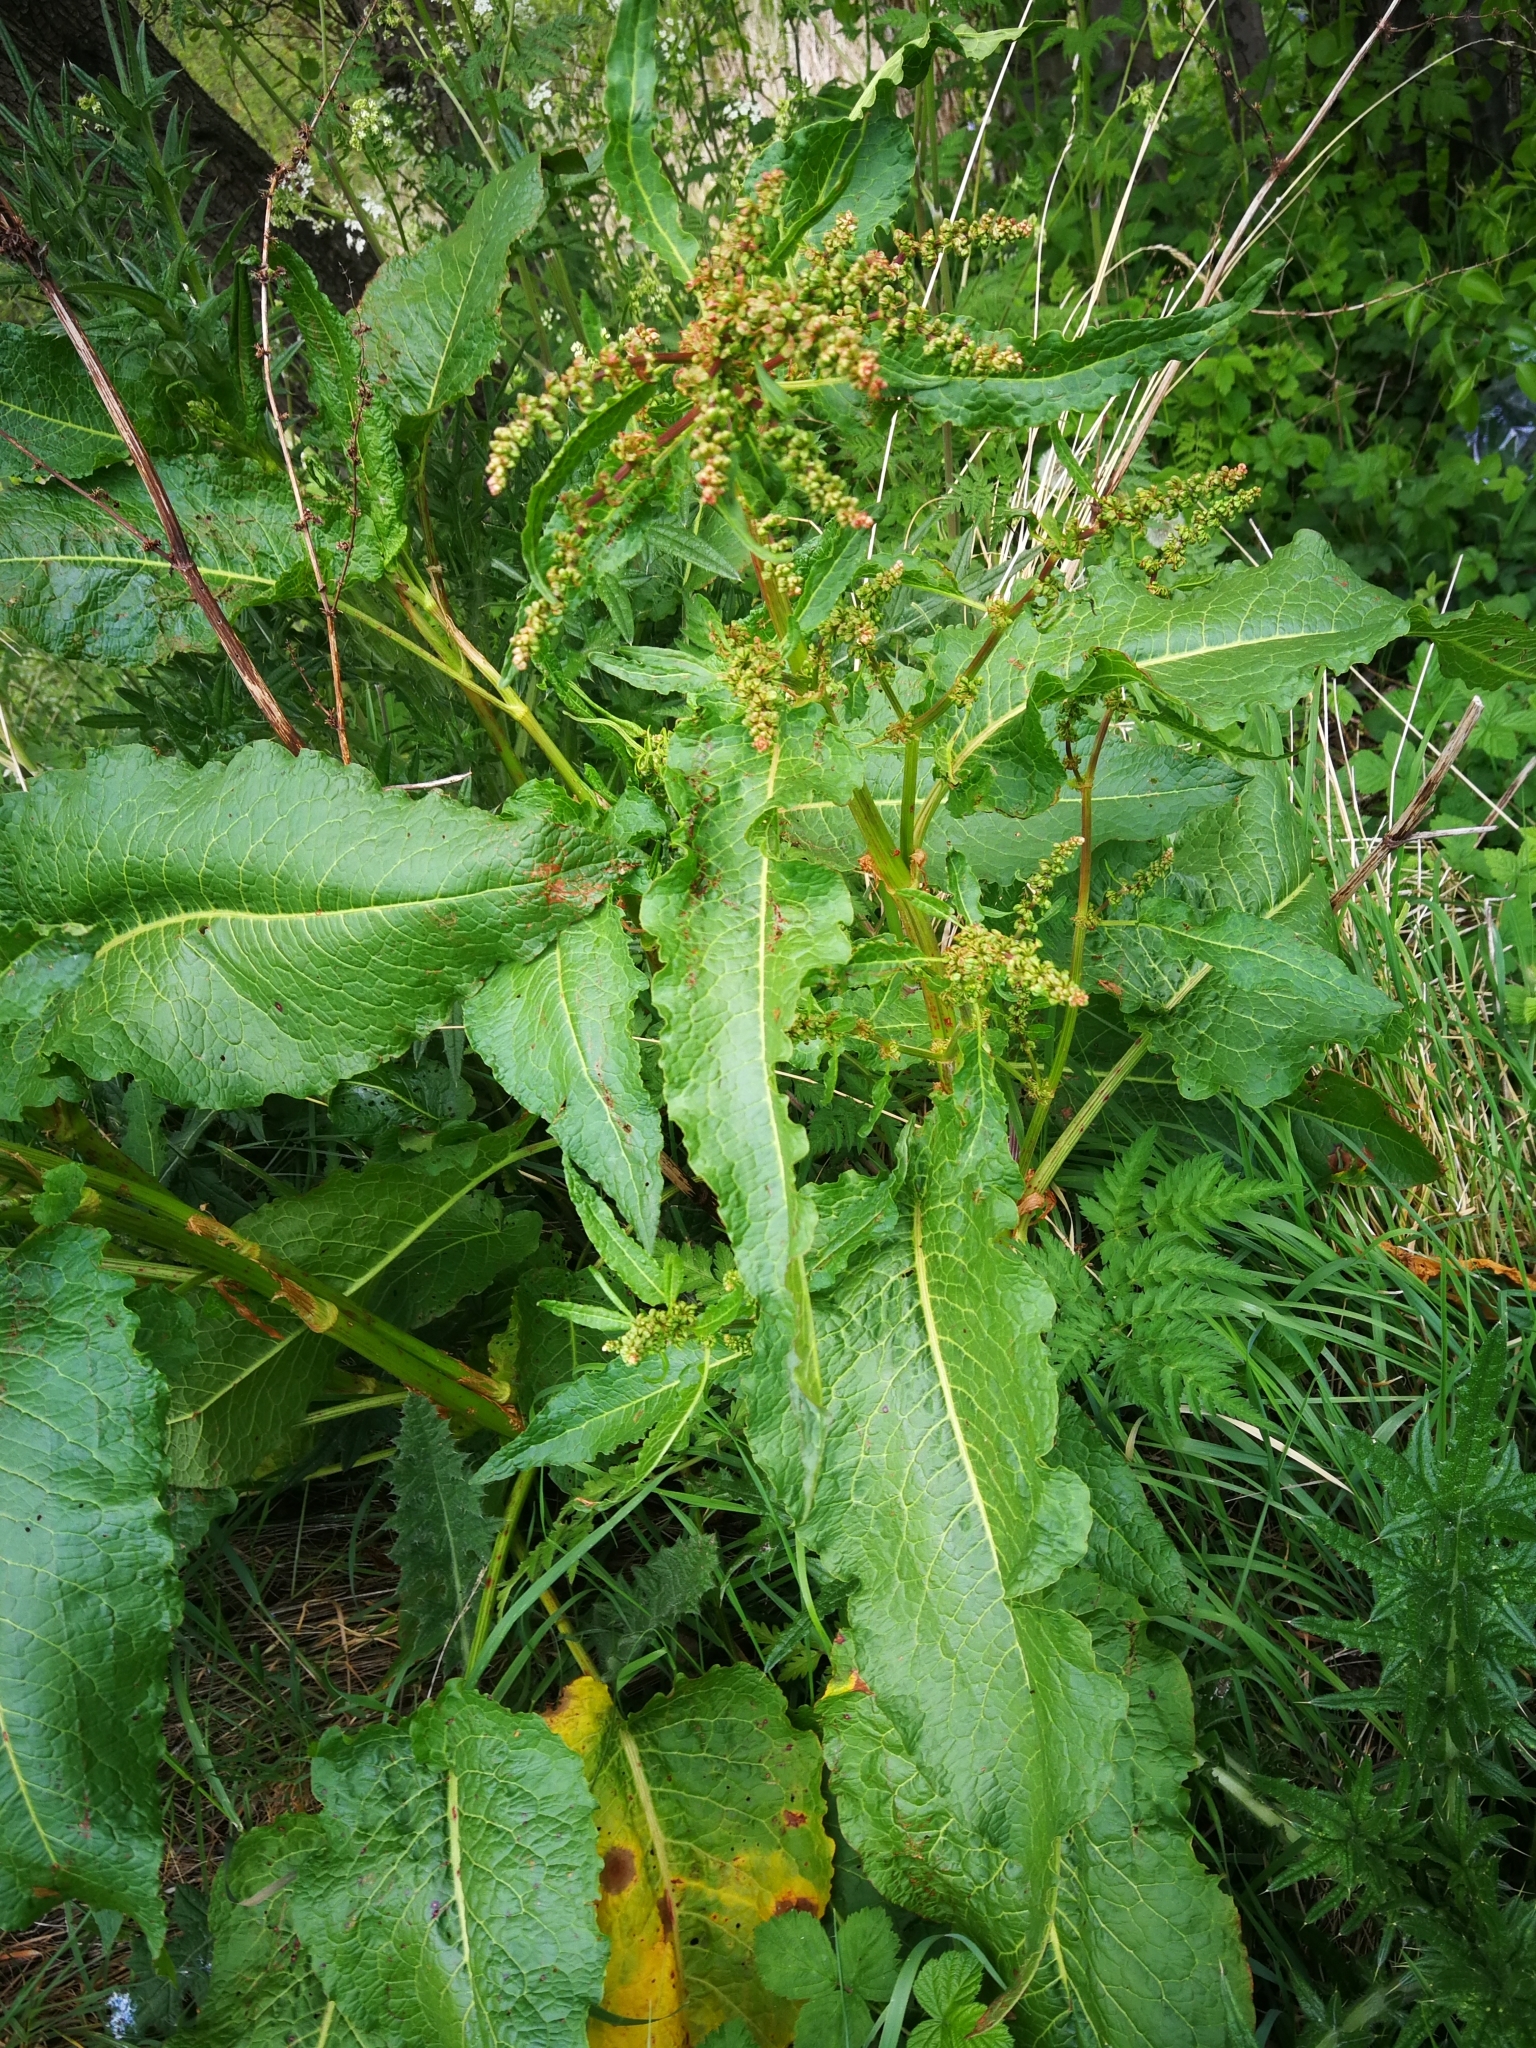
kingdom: Plantae
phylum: Tracheophyta
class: Magnoliopsida
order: Caryophyllales
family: Polygonaceae
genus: Rumex
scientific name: Rumex obtusifolius
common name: Bitter dock
